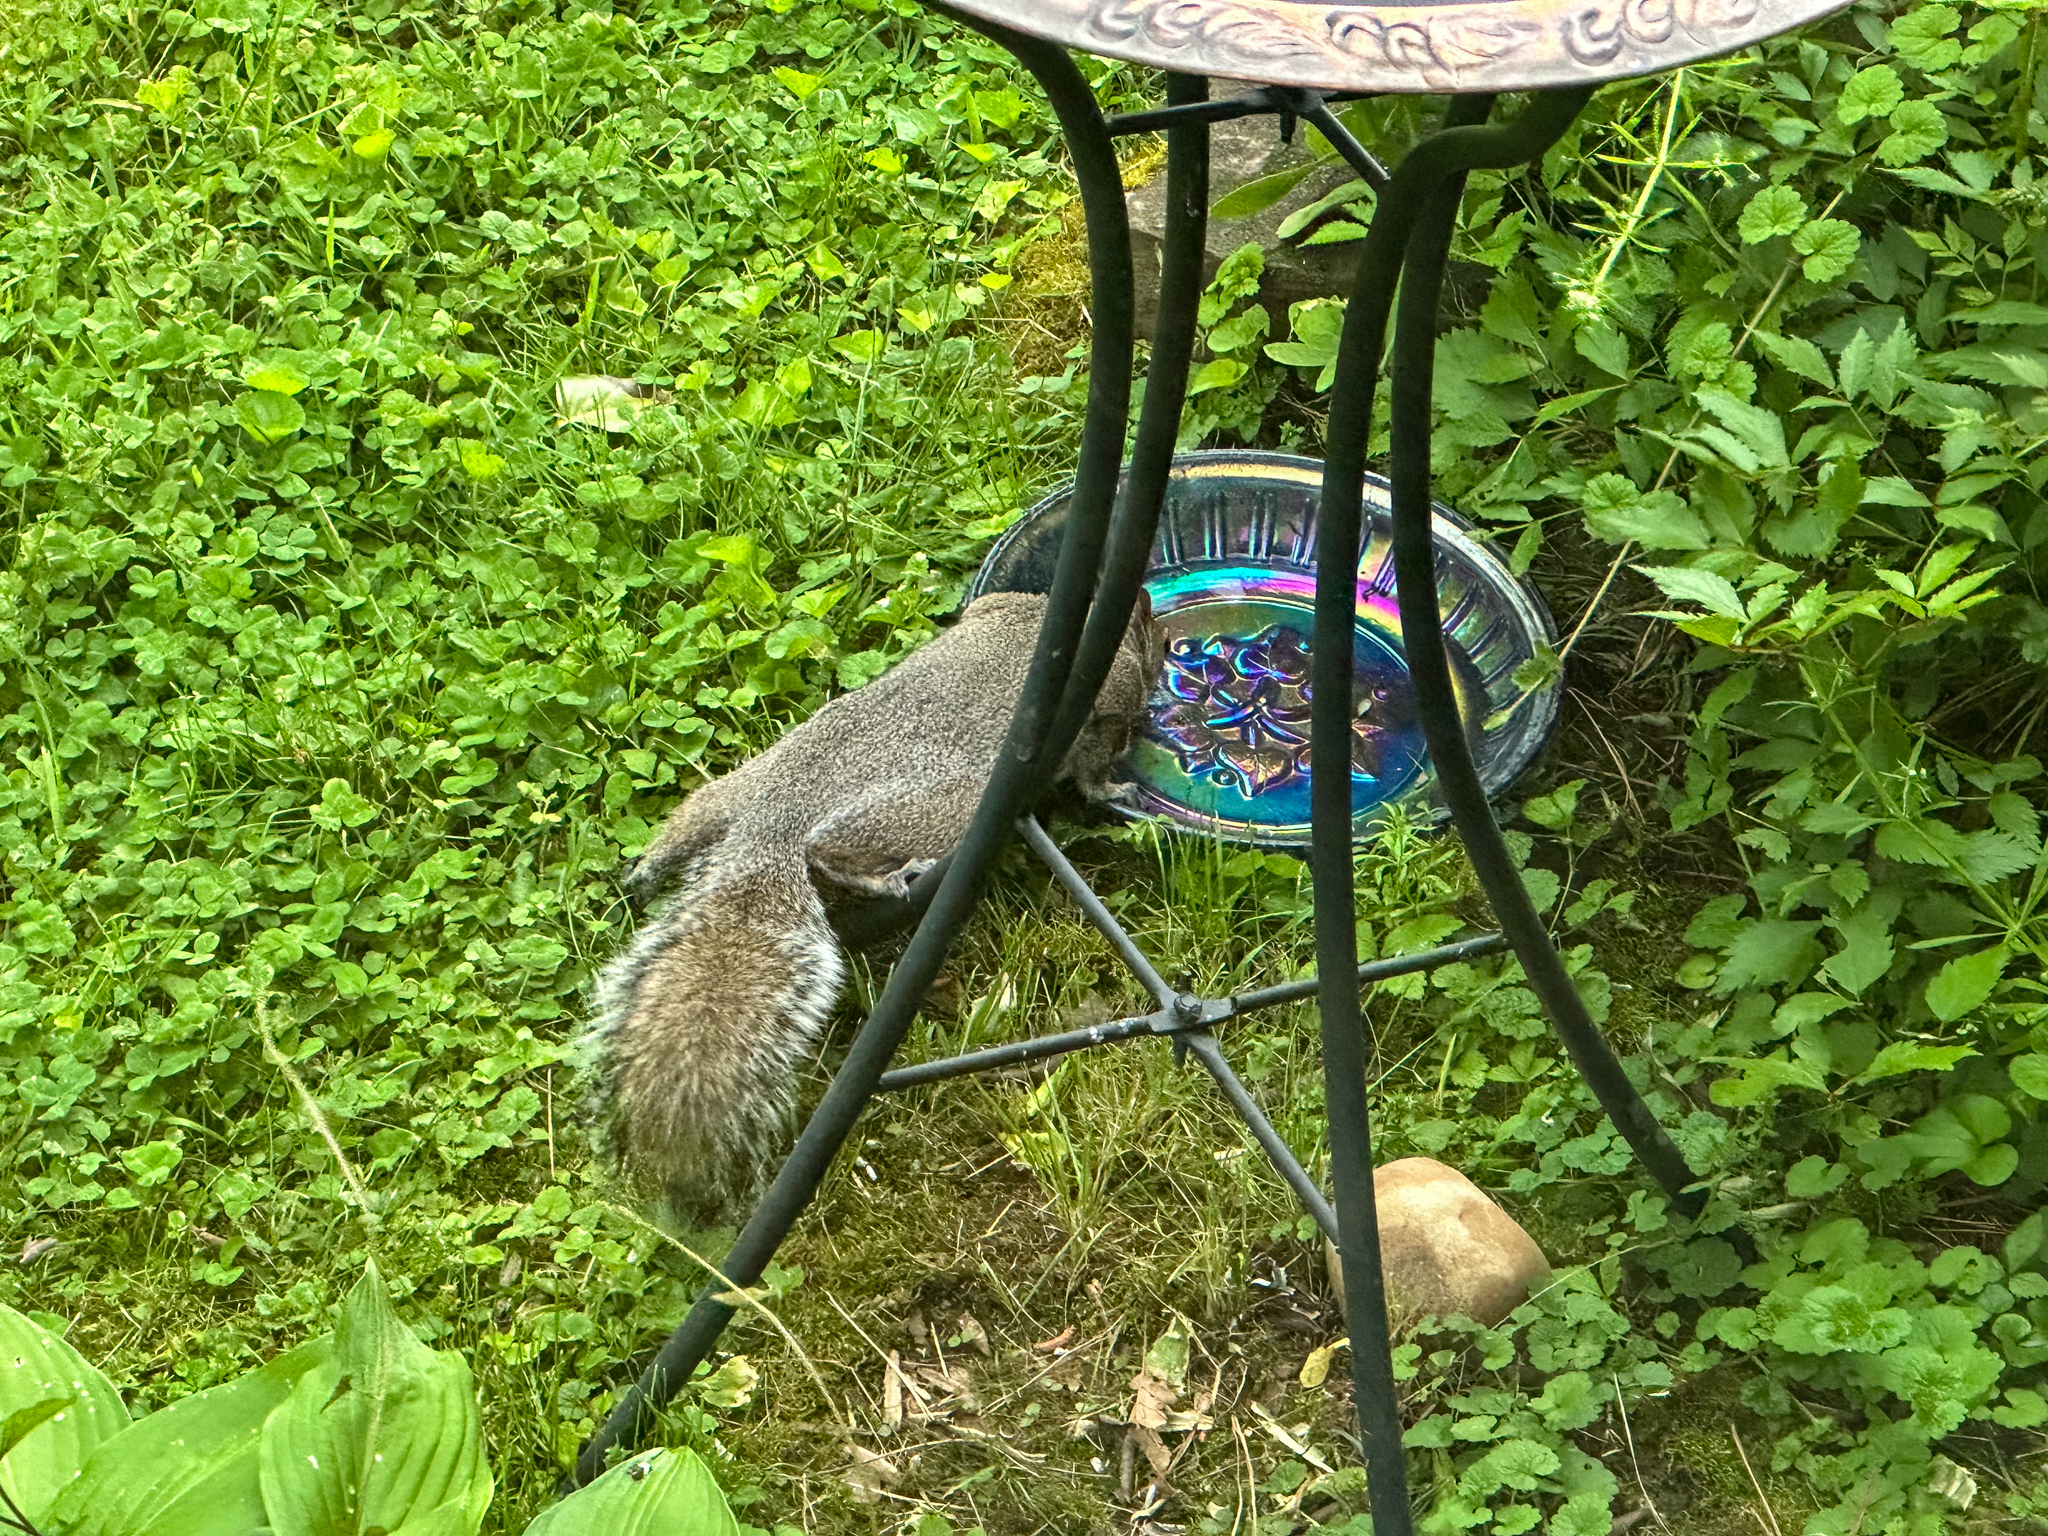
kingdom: Animalia
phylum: Chordata
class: Mammalia
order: Rodentia
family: Sciuridae
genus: Sciurus
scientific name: Sciurus carolinensis
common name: Eastern gray squirrel
